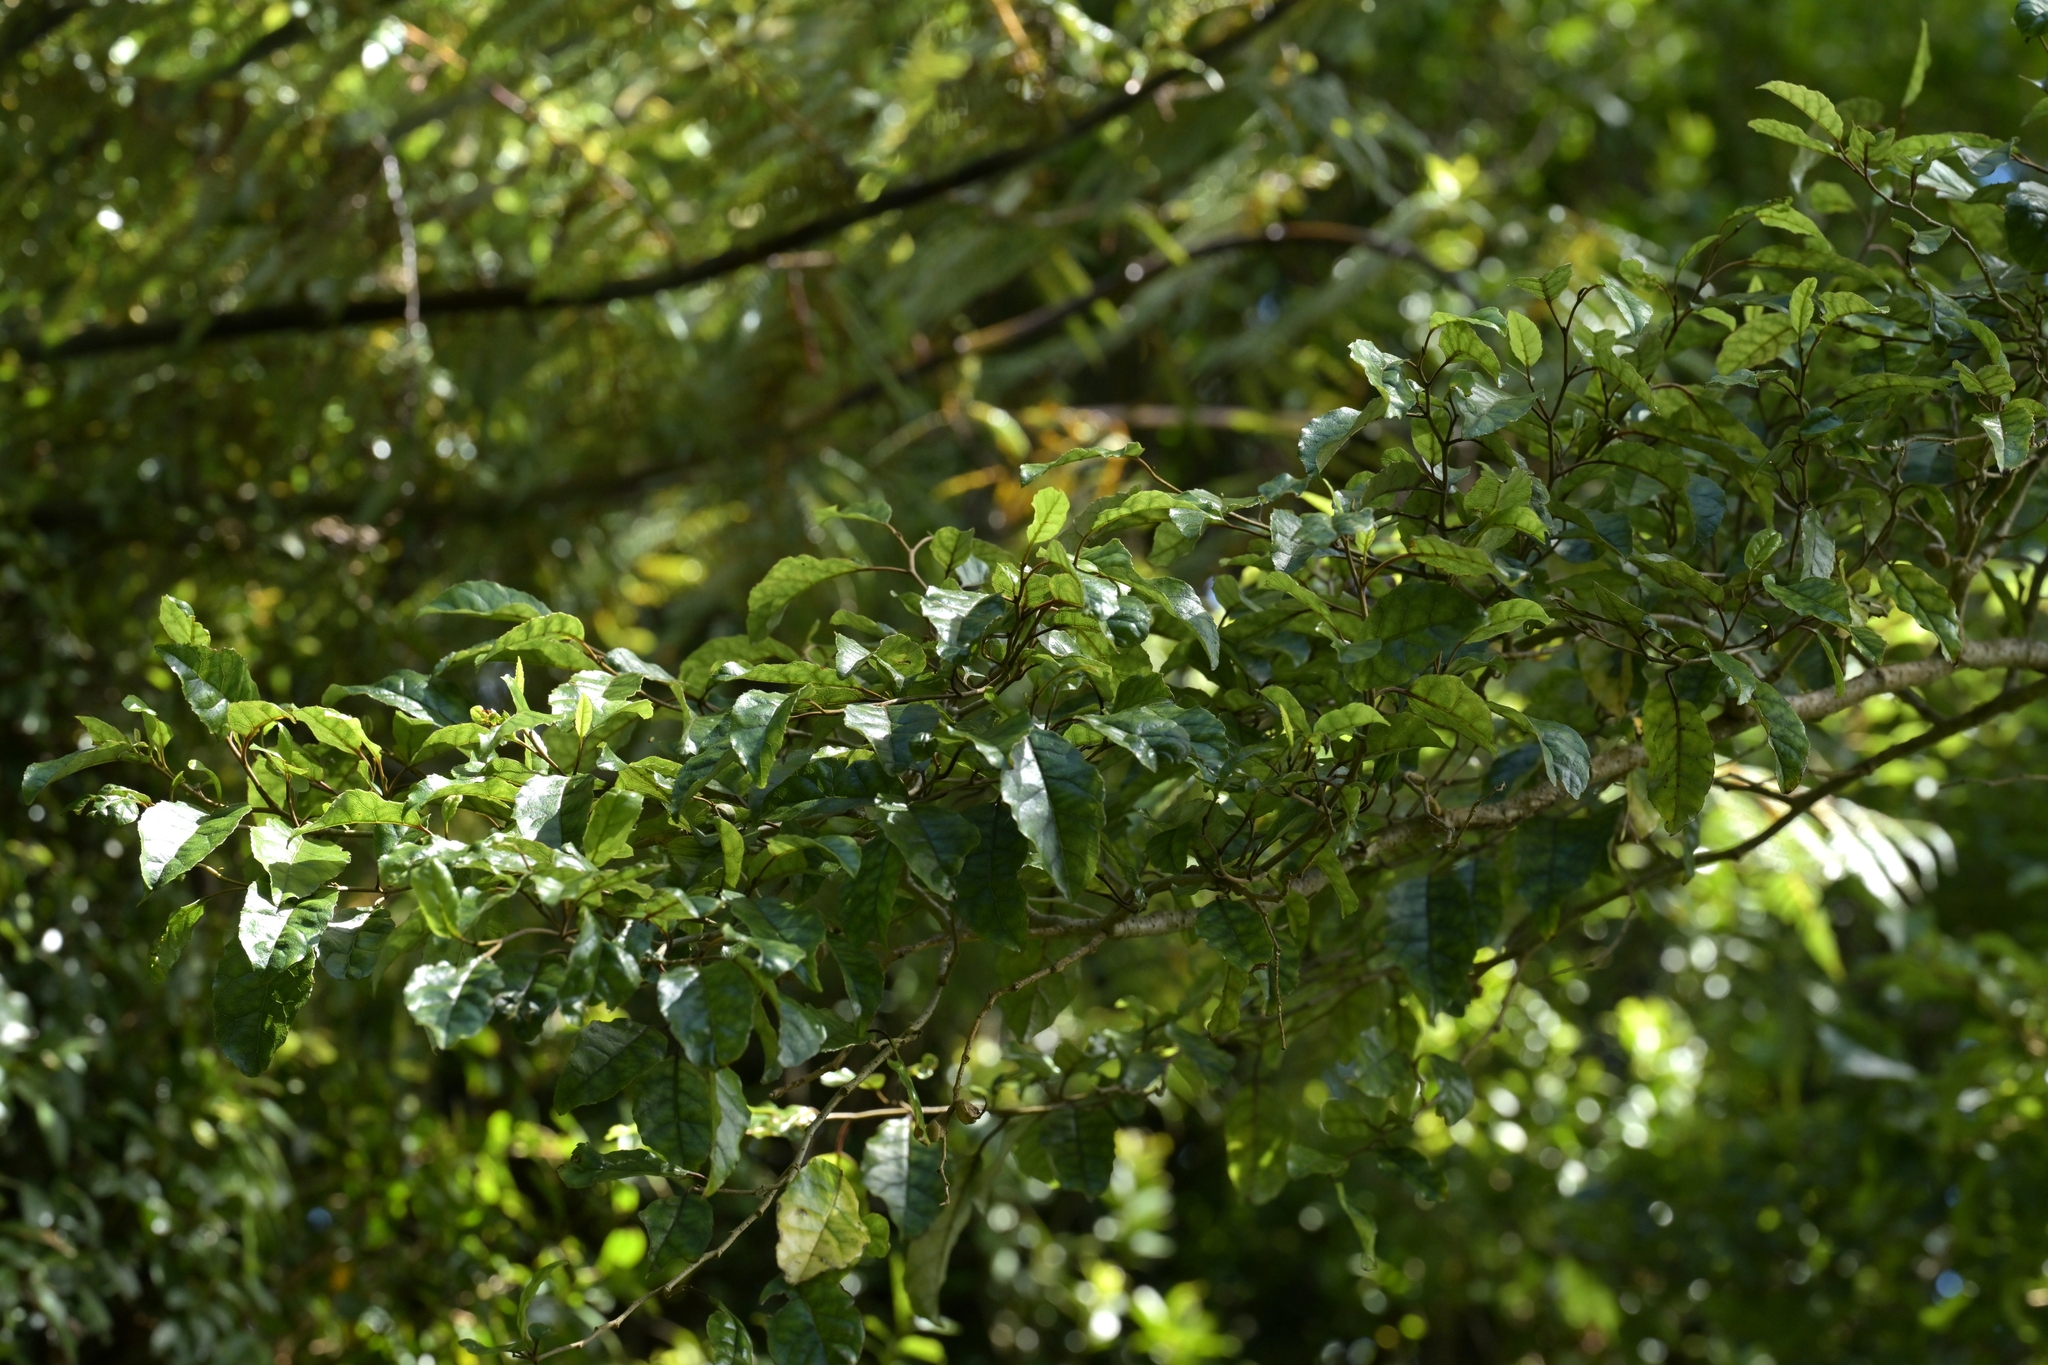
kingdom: Plantae
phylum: Tracheophyta
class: Magnoliopsida
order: Asterales
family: Rousseaceae
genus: Carpodetus
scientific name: Carpodetus serratus
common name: White mapau
